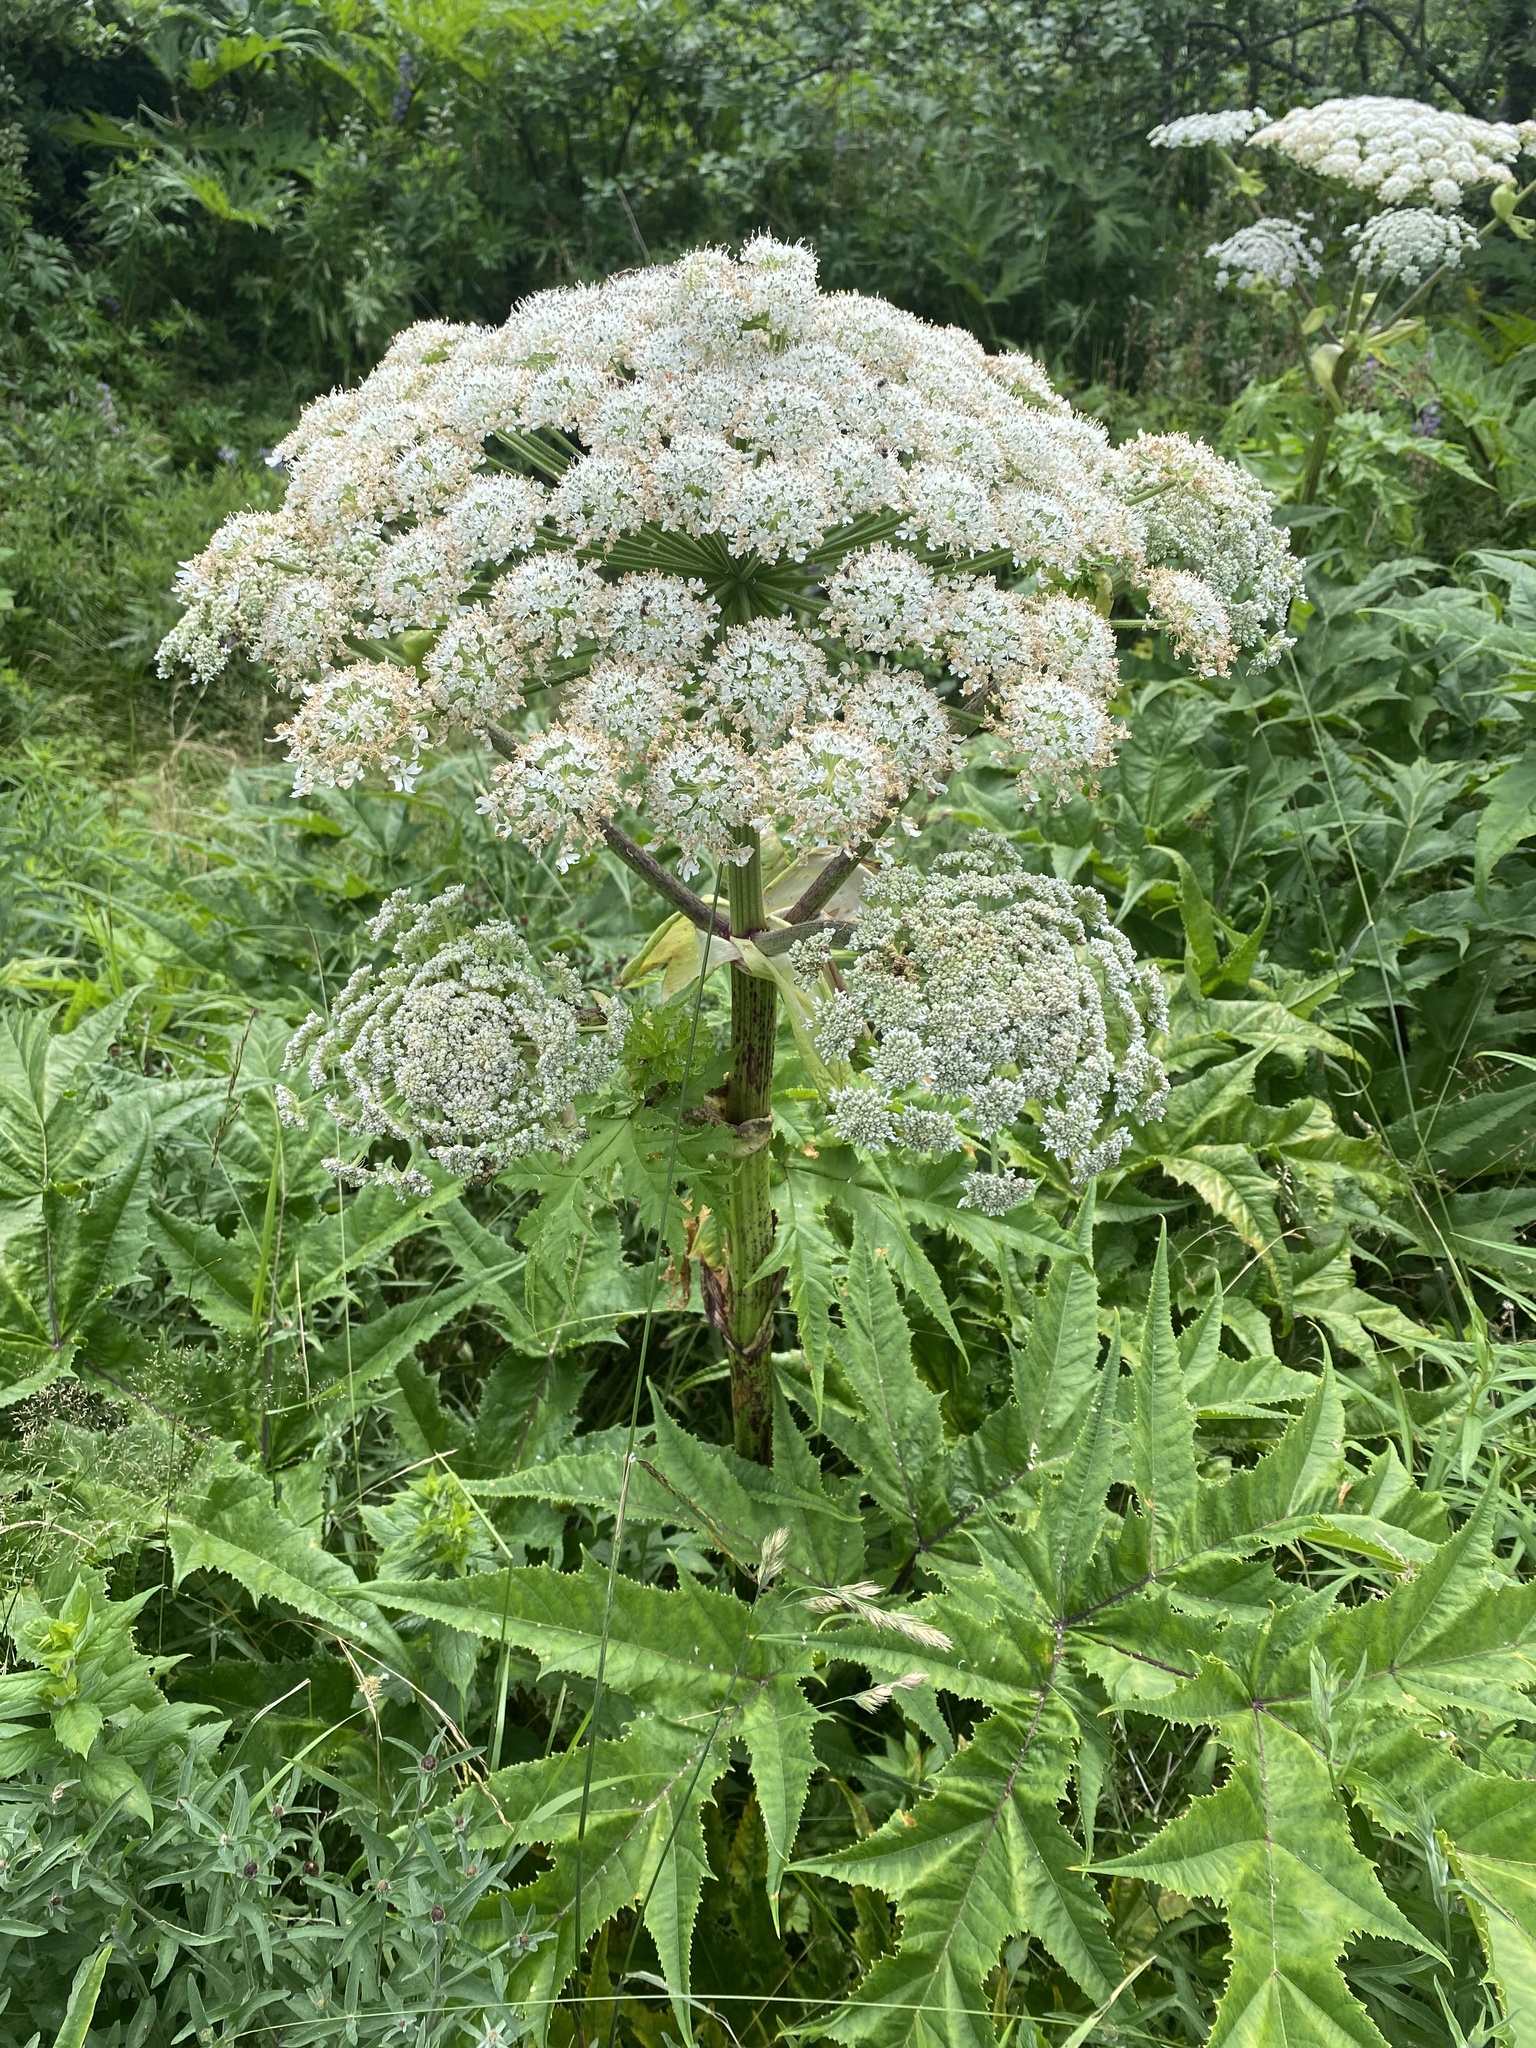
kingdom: Plantae
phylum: Tracheophyta
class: Magnoliopsida
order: Apiales
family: Apiaceae
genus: Heracleum
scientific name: Heracleum mantegazzianum
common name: Giant hogweed
